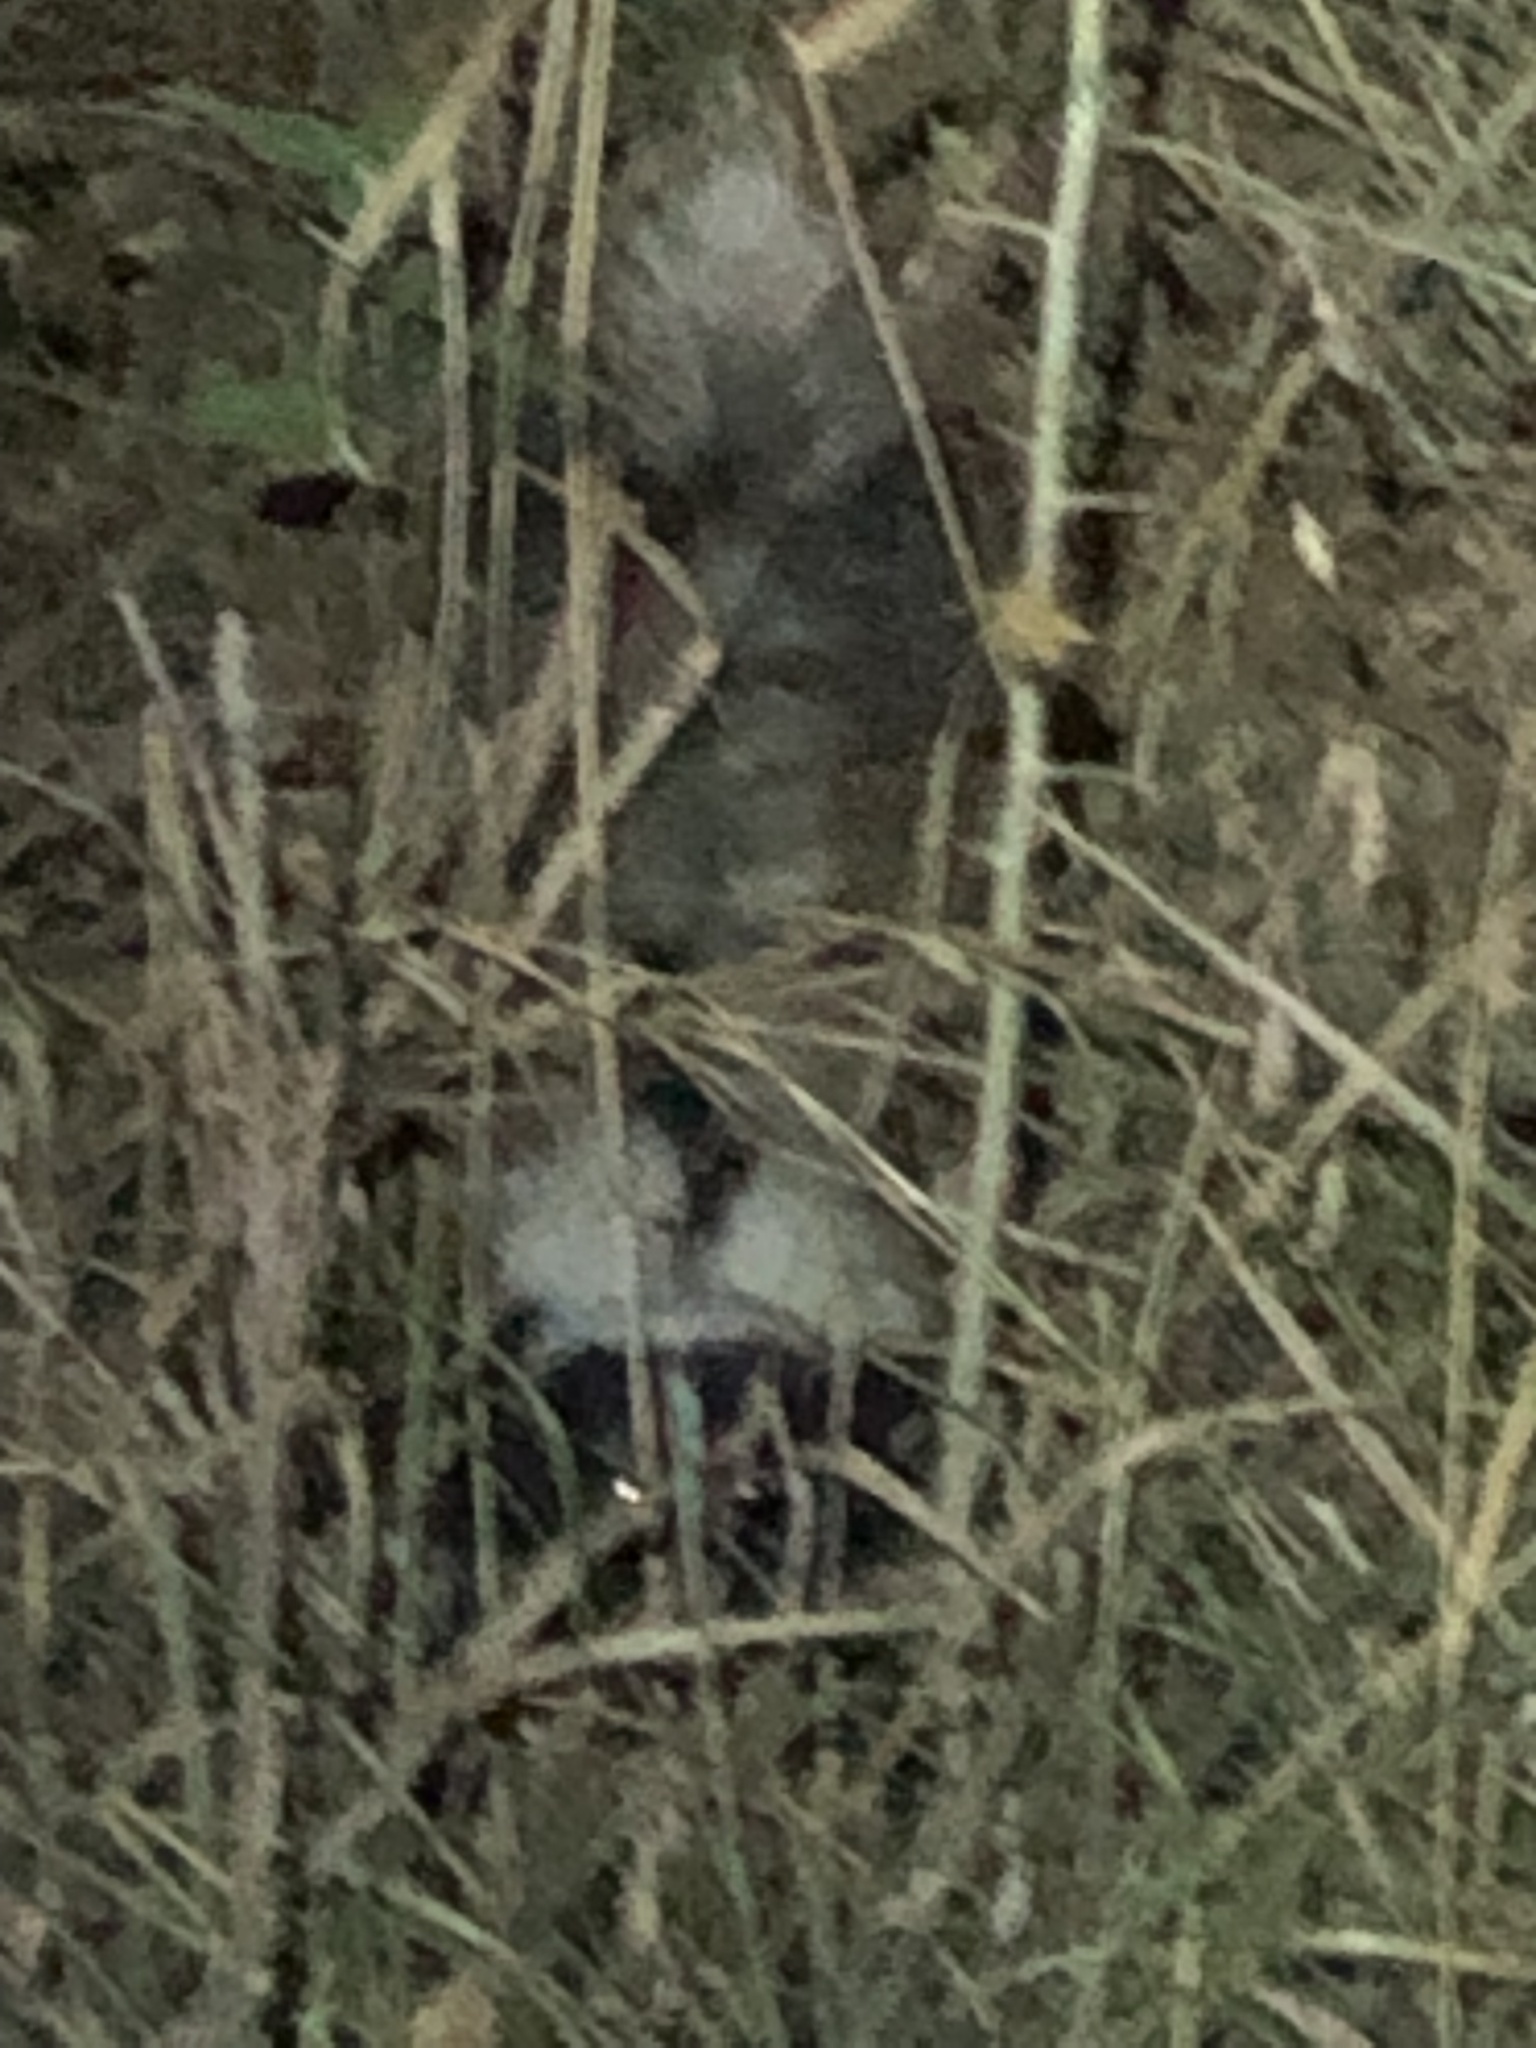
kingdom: Animalia
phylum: Chordata
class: Mammalia
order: Carnivora
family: Mephitidae
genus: Mephitis
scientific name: Mephitis mephitis
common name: Striped skunk
